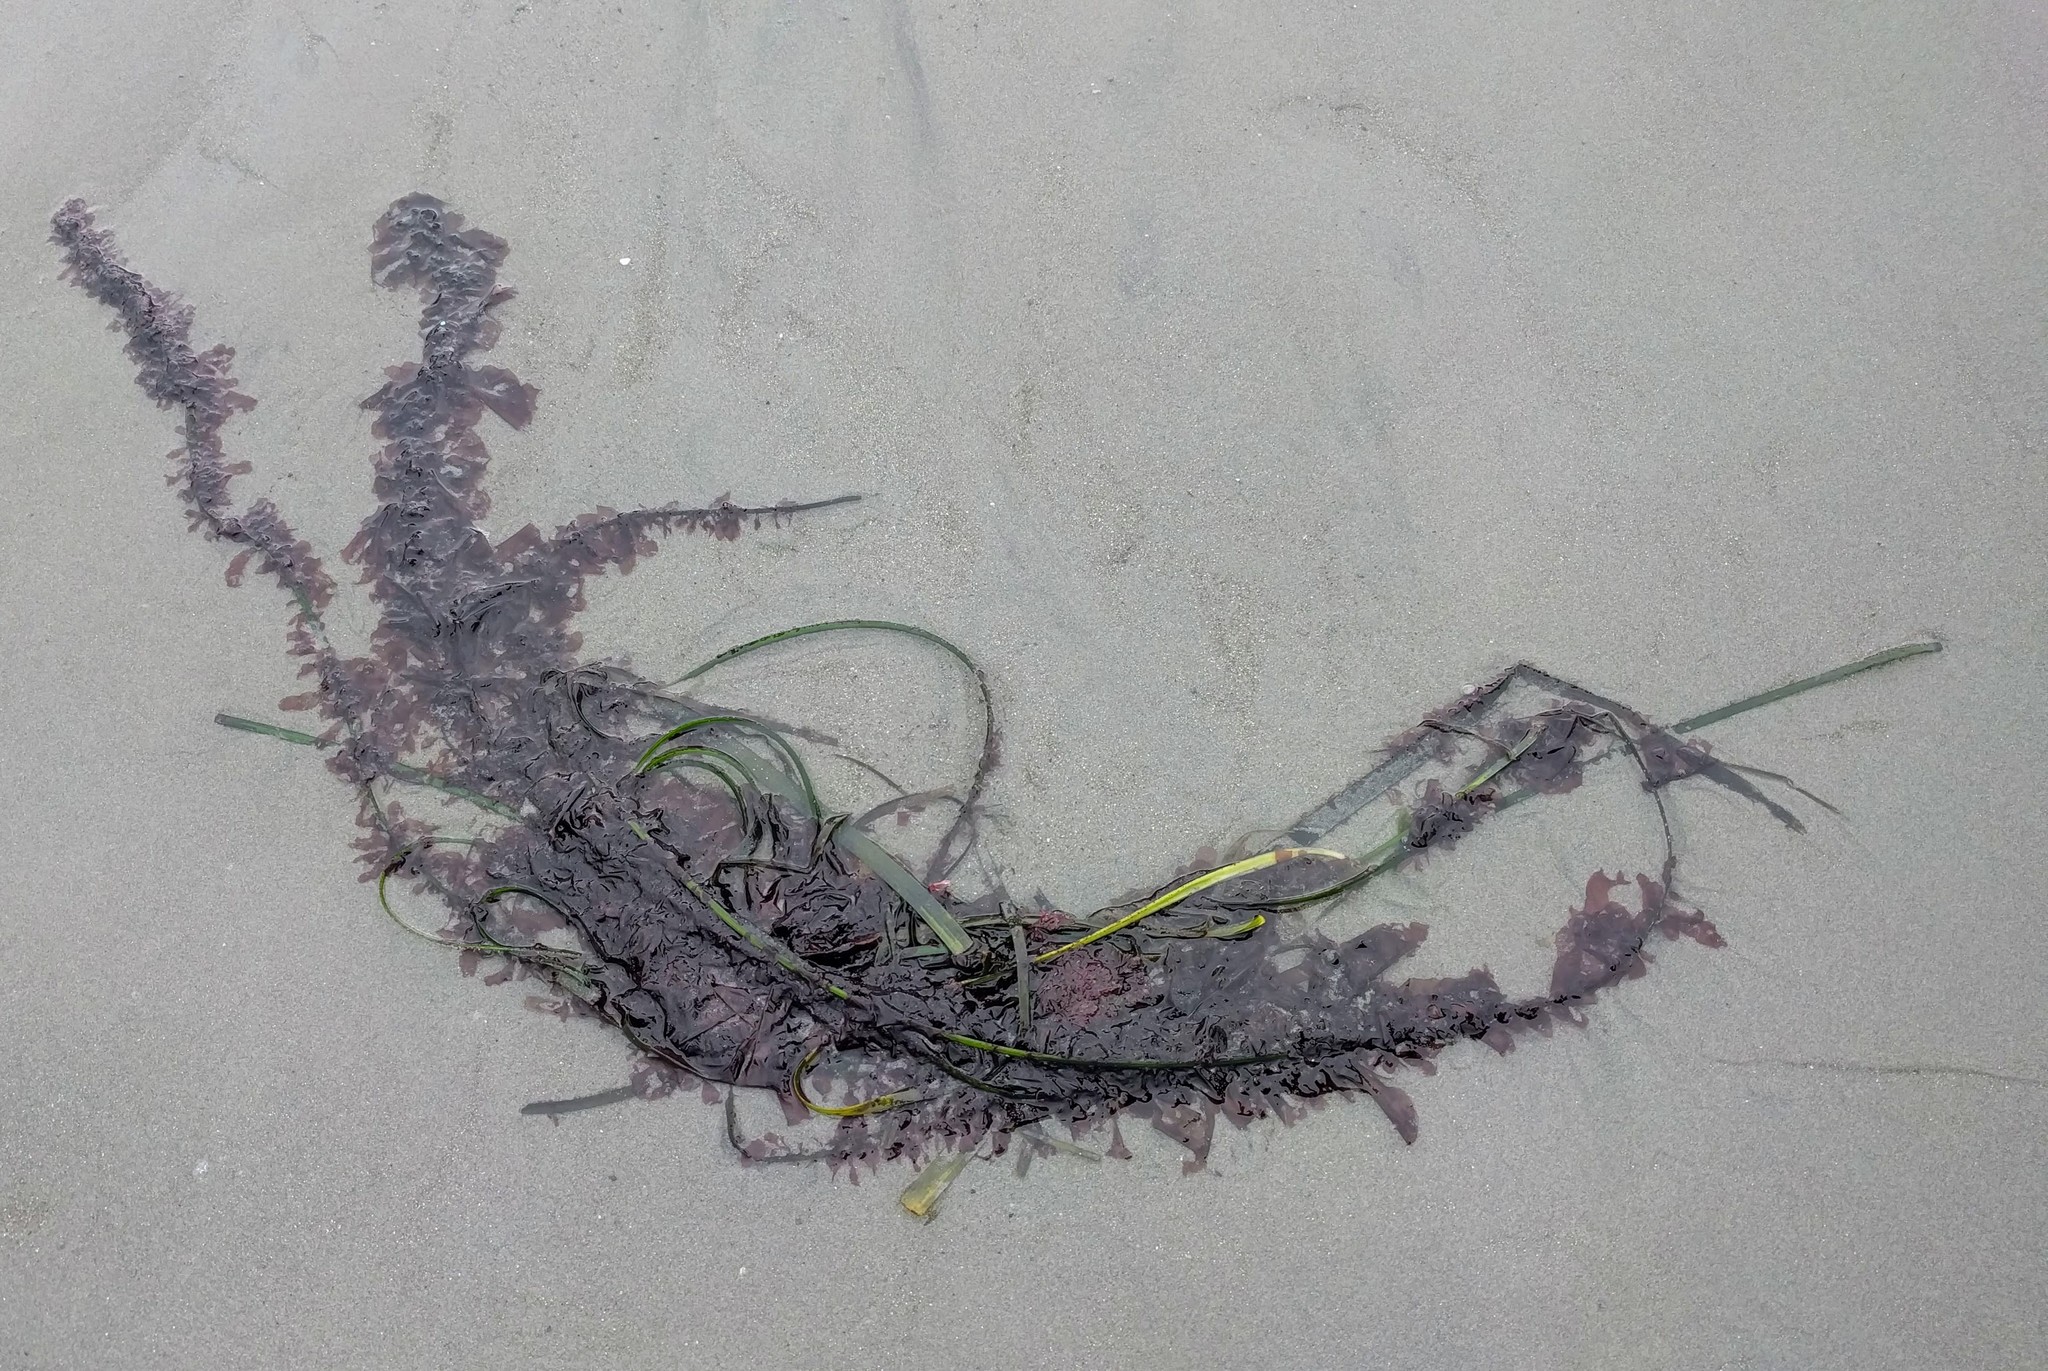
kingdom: Plantae
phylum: Rhodophyta
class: Compsopogonophyceae
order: Erythropeltidales
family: Erythrotrichiaceae
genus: Smithora
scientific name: Smithora naiadum
